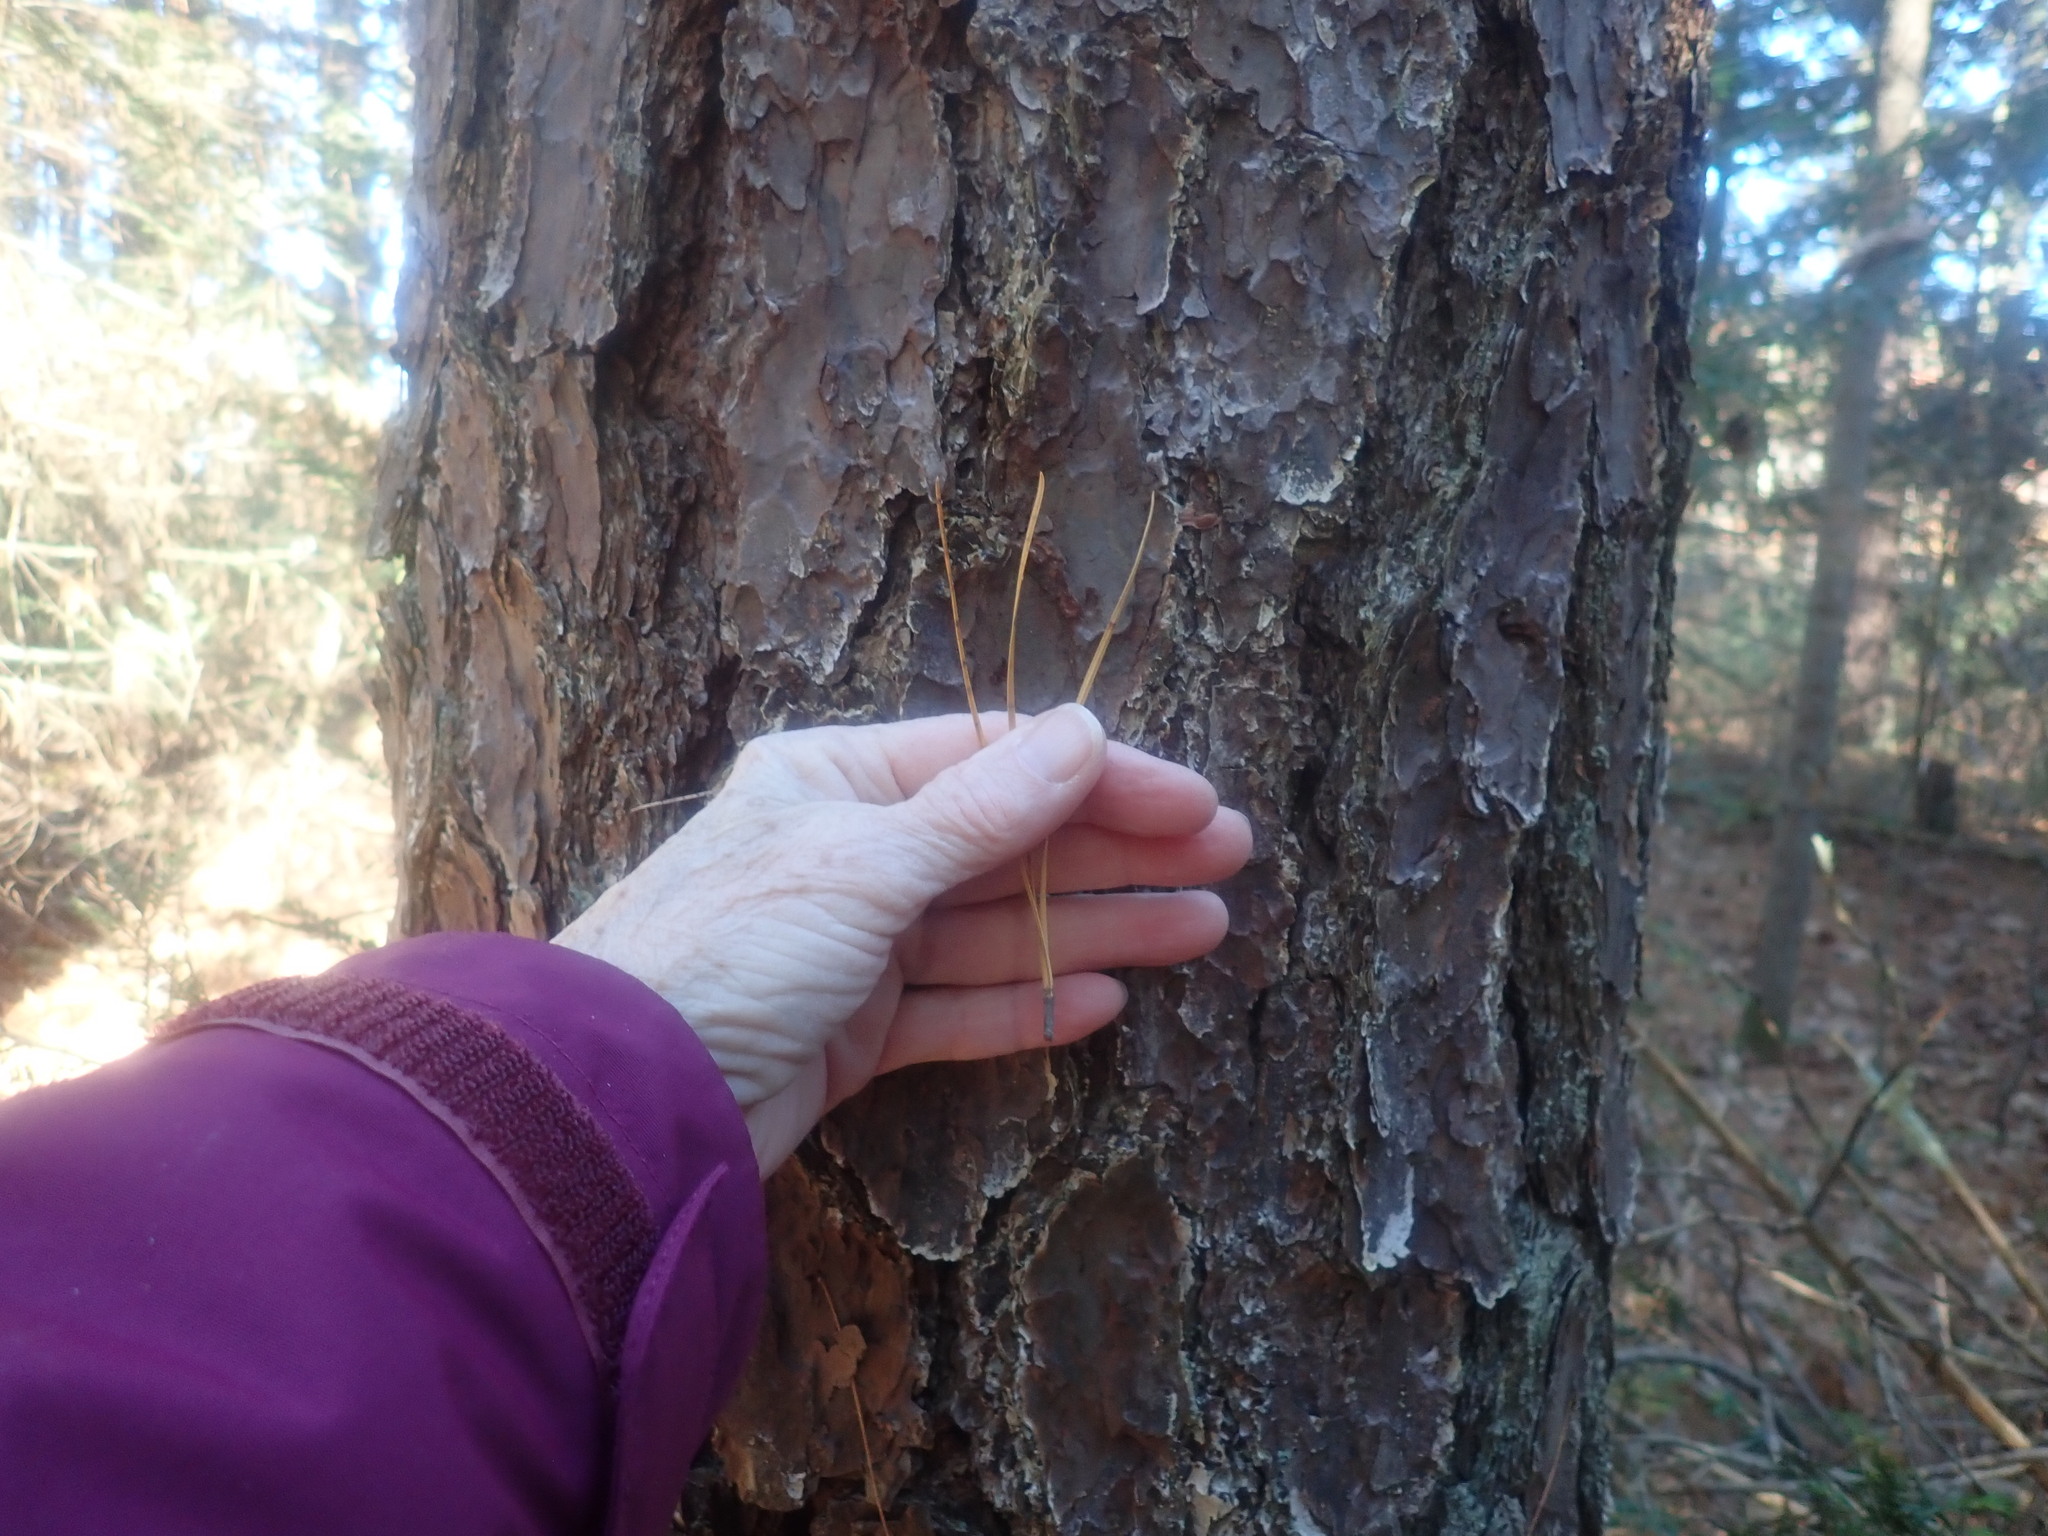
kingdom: Plantae
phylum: Tracheophyta
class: Pinopsida
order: Pinales
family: Pinaceae
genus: Pinus
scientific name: Pinus rigida
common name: Pitch pine
